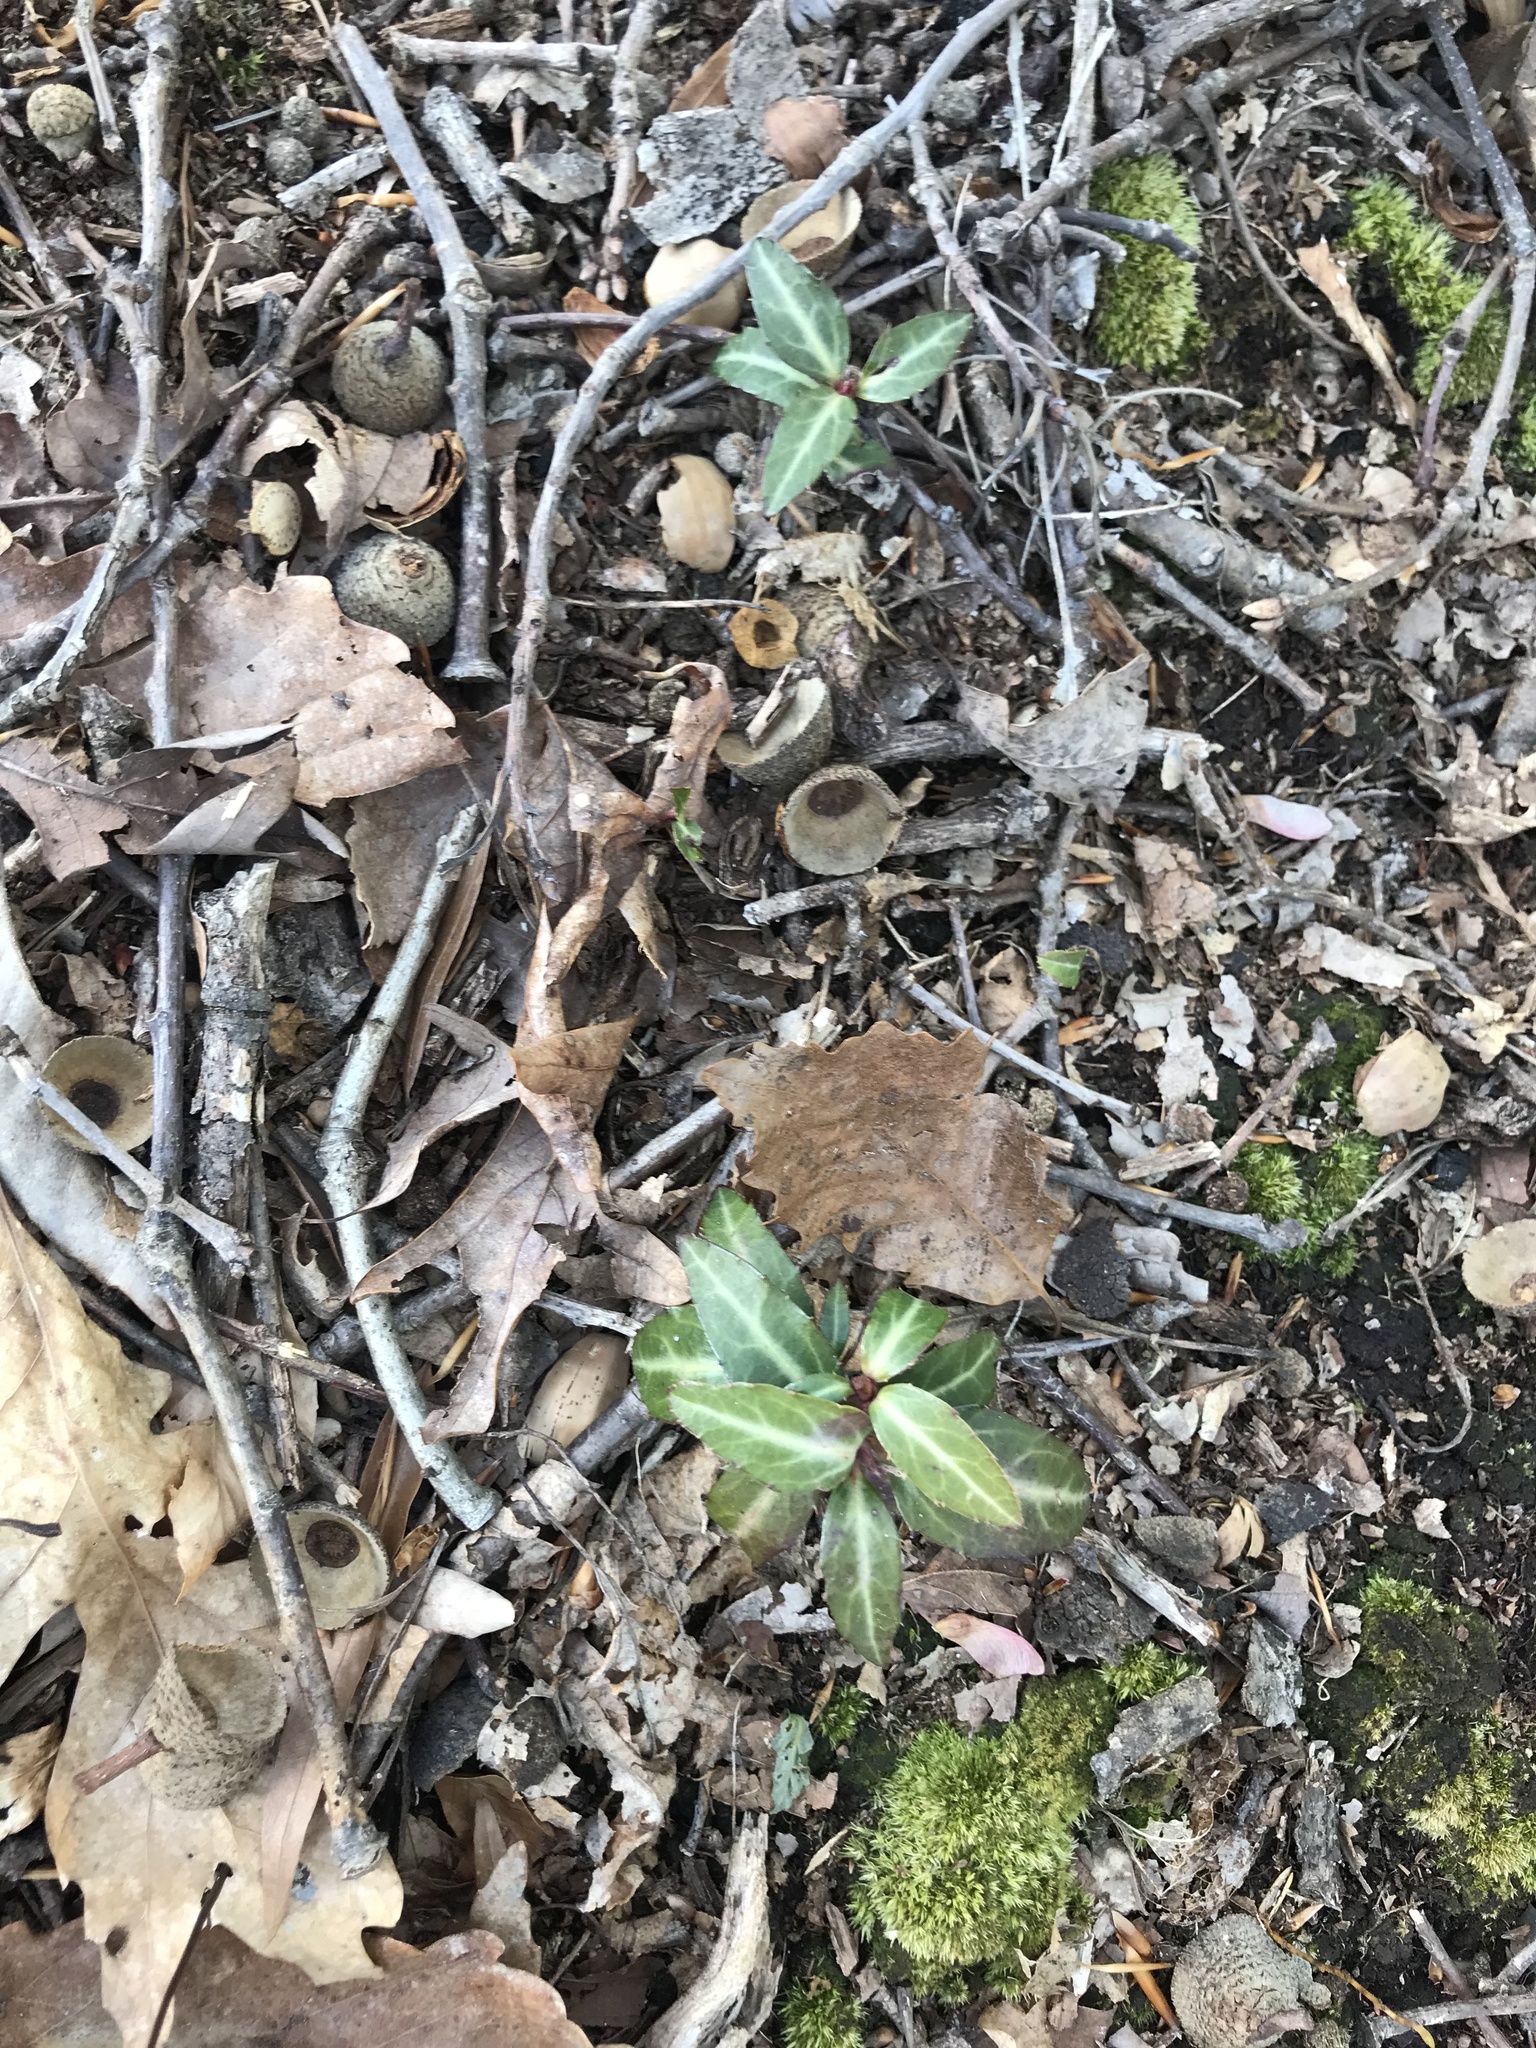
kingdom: Plantae
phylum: Tracheophyta
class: Magnoliopsida
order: Ericales
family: Ericaceae
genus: Chimaphila
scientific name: Chimaphila maculata
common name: Spotted pipsissewa
